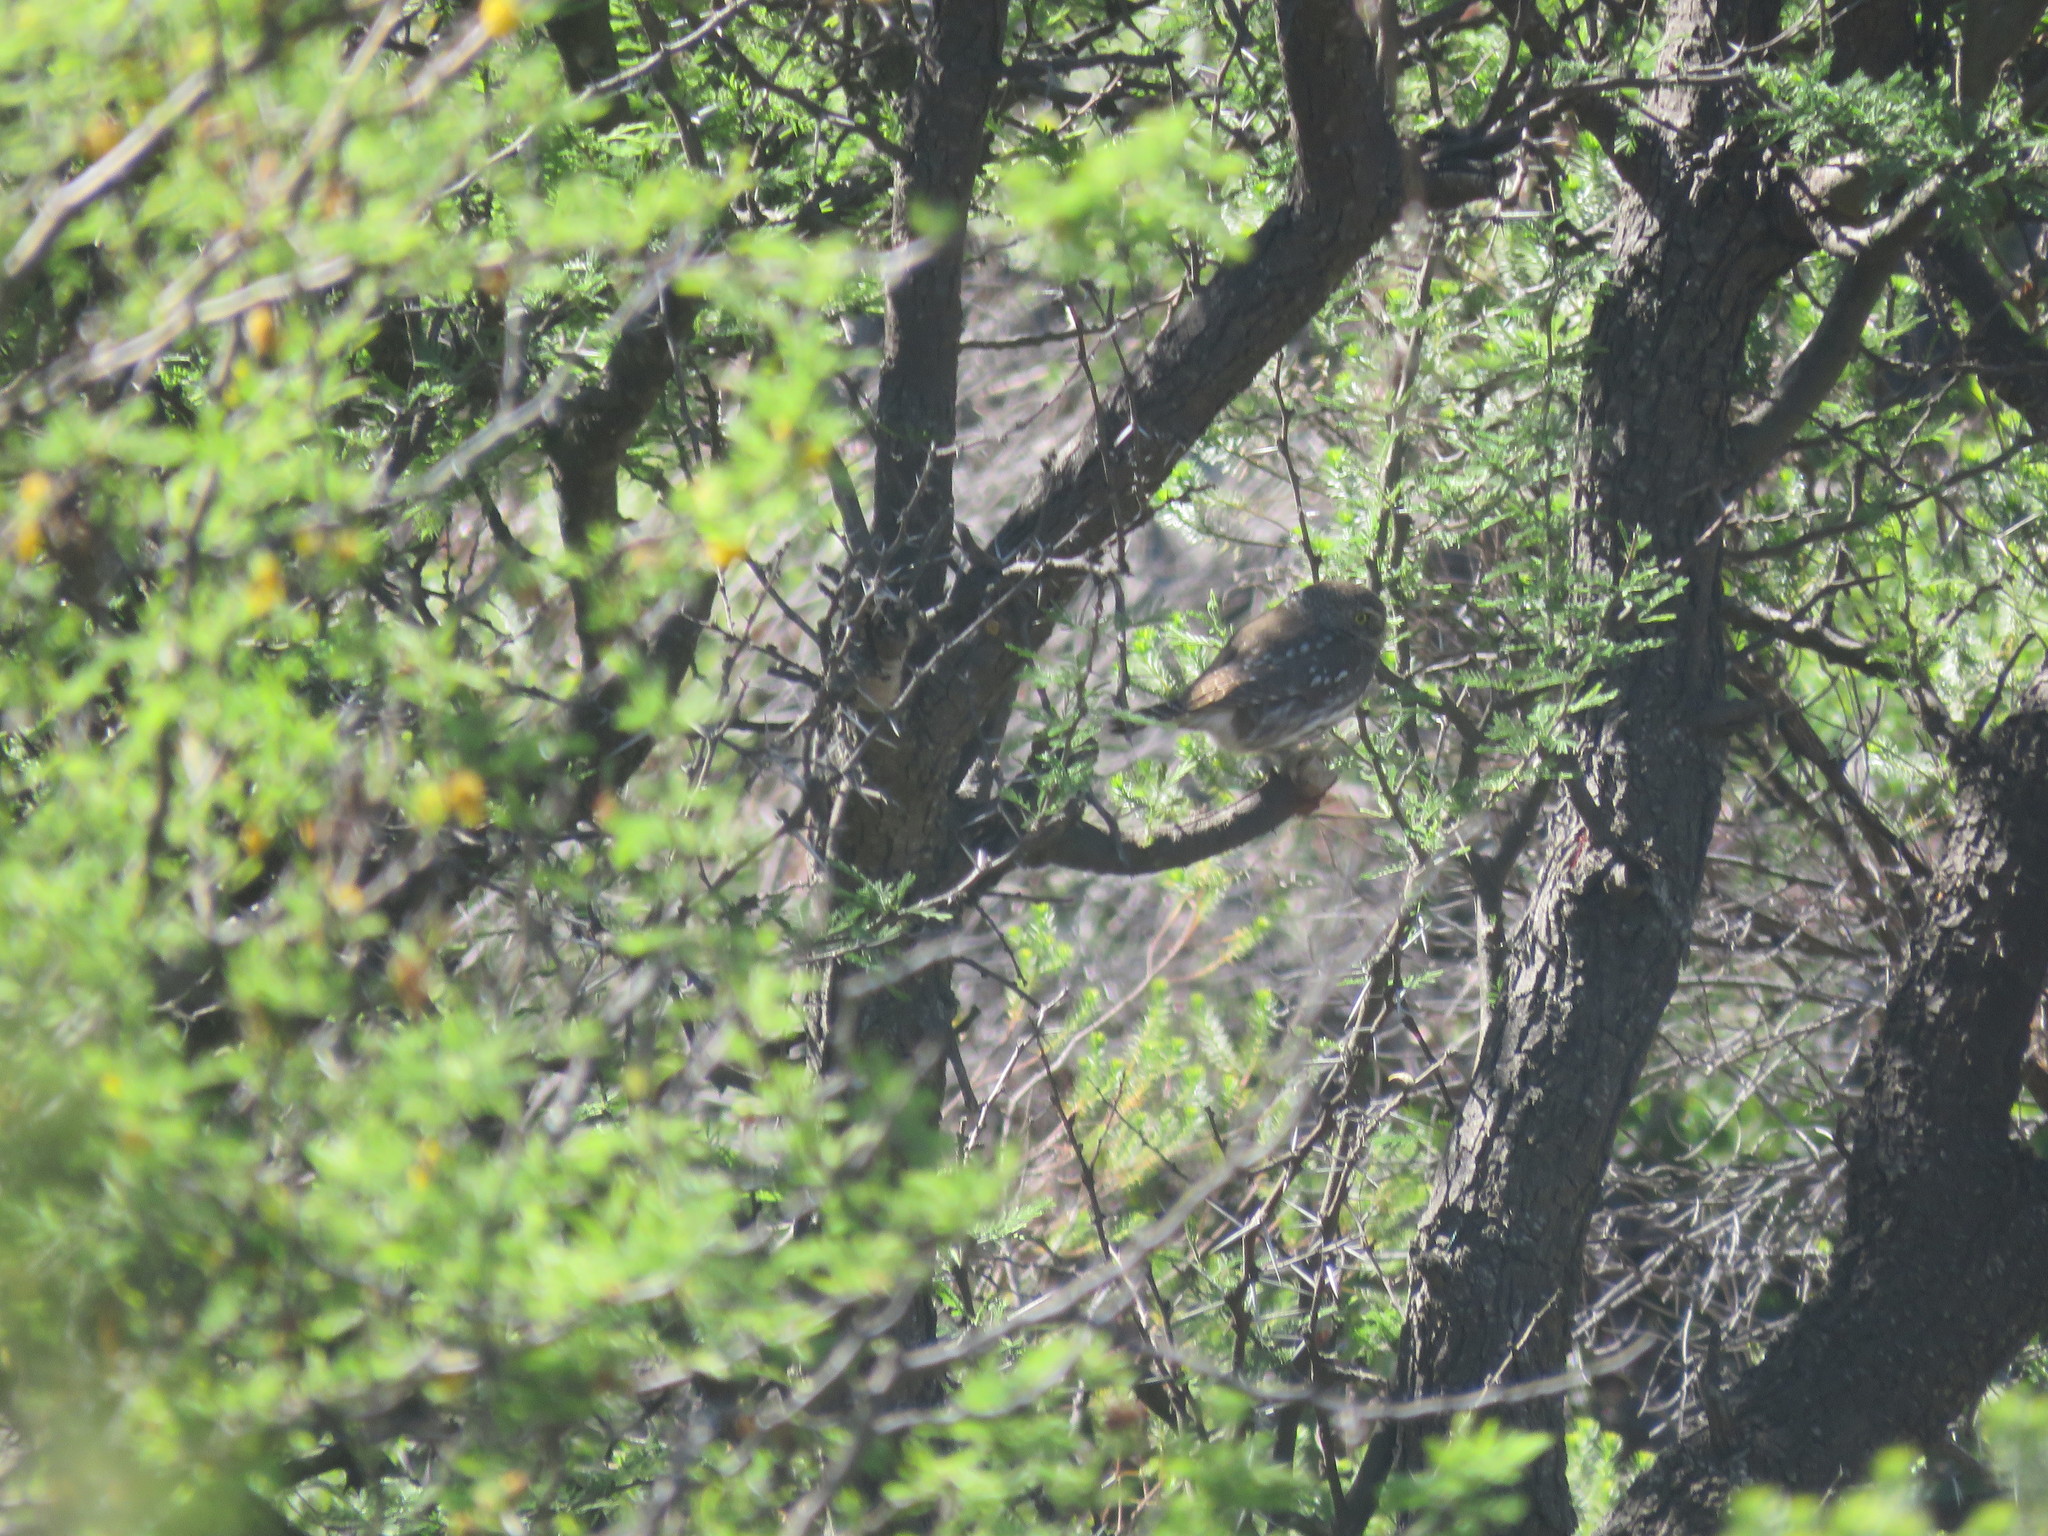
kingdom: Animalia
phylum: Chordata
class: Aves
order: Strigiformes
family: Strigidae
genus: Glaucidium
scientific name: Glaucidium brasilianum
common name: Ferruginous pygmy-owl
